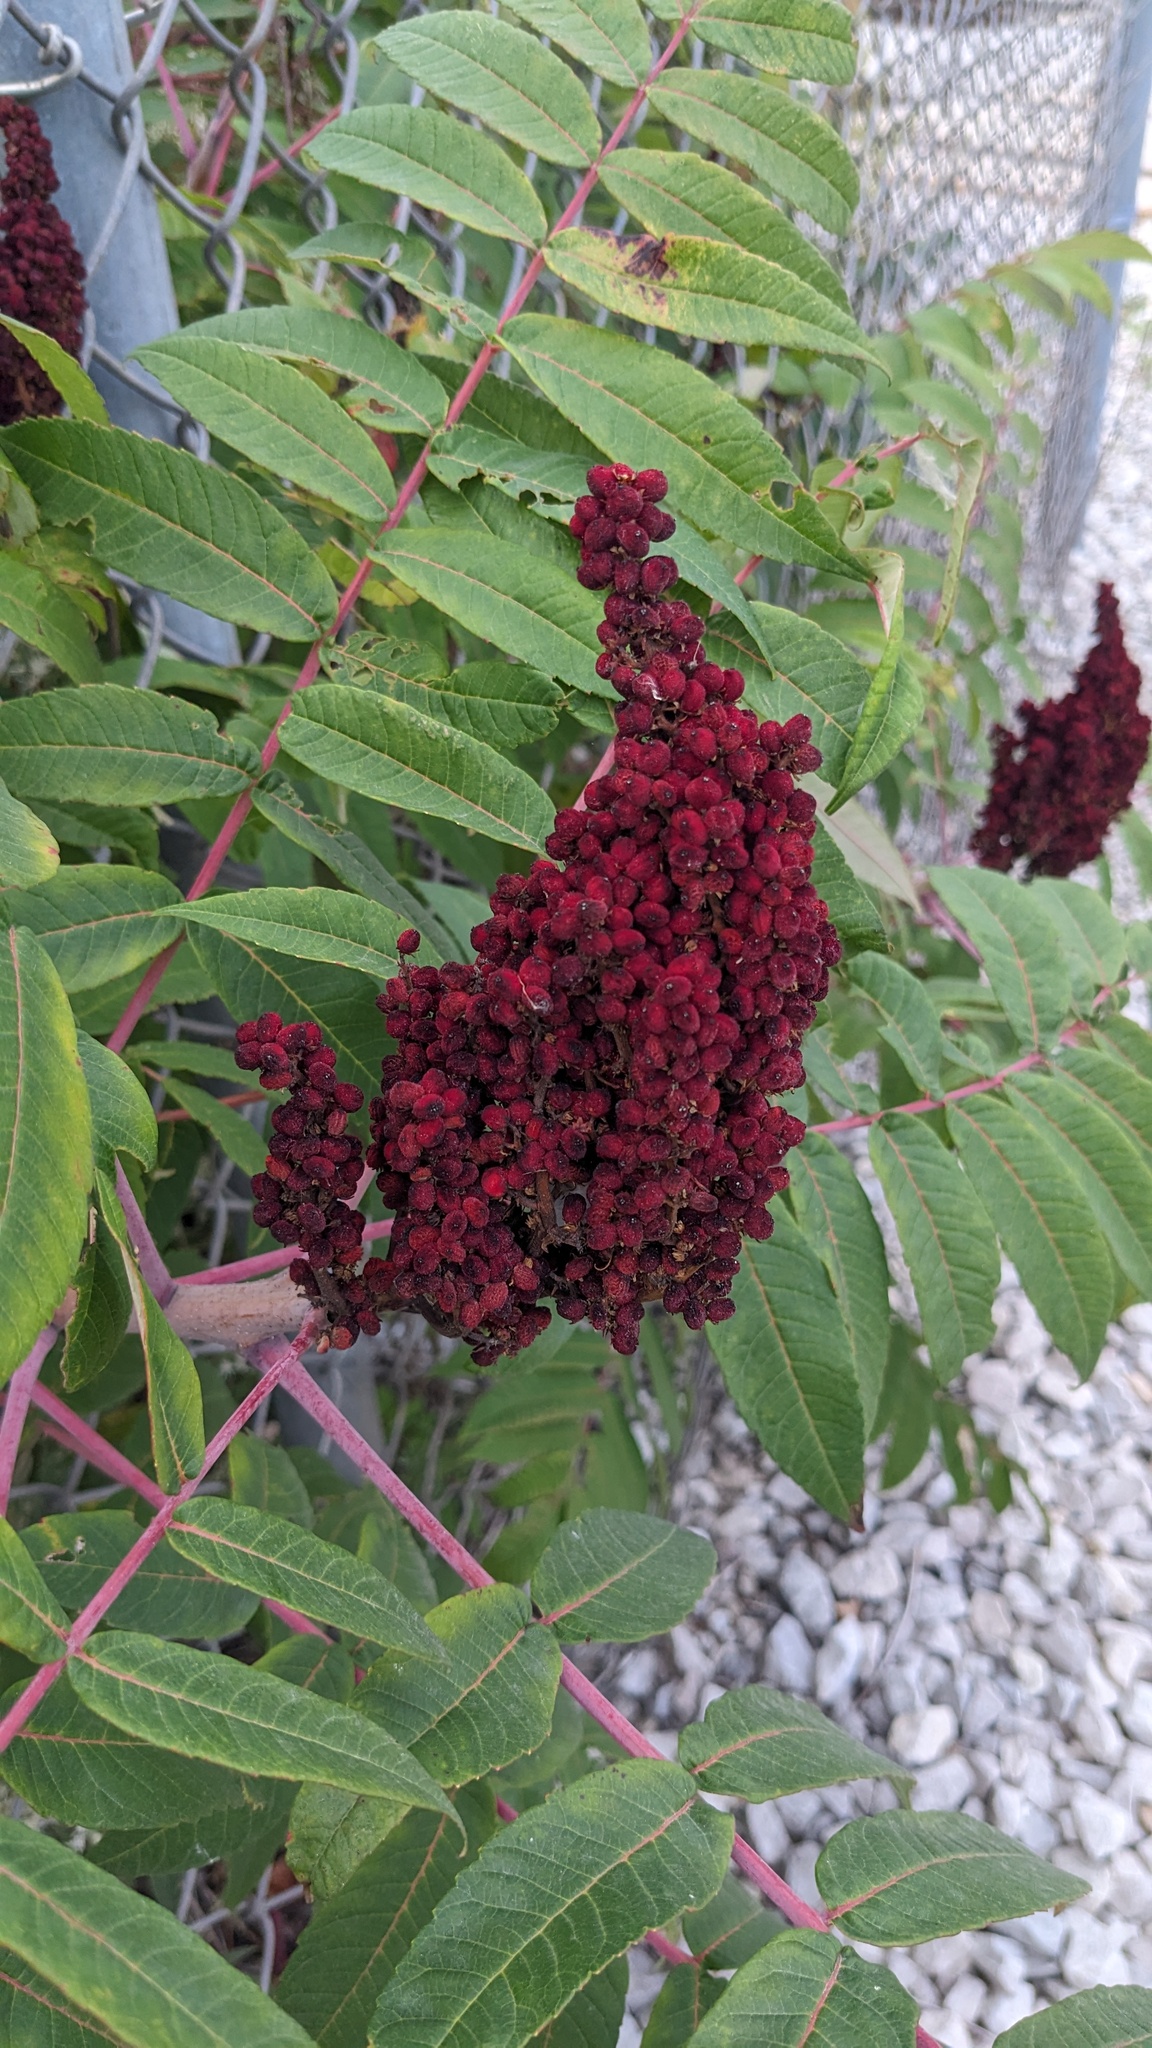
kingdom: Plantae
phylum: Tracheophyta
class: Magnoliopsida
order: Sapindales
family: Anacardiaceae
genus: Rhus
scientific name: Rhus glabra
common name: Scarlet sumac
